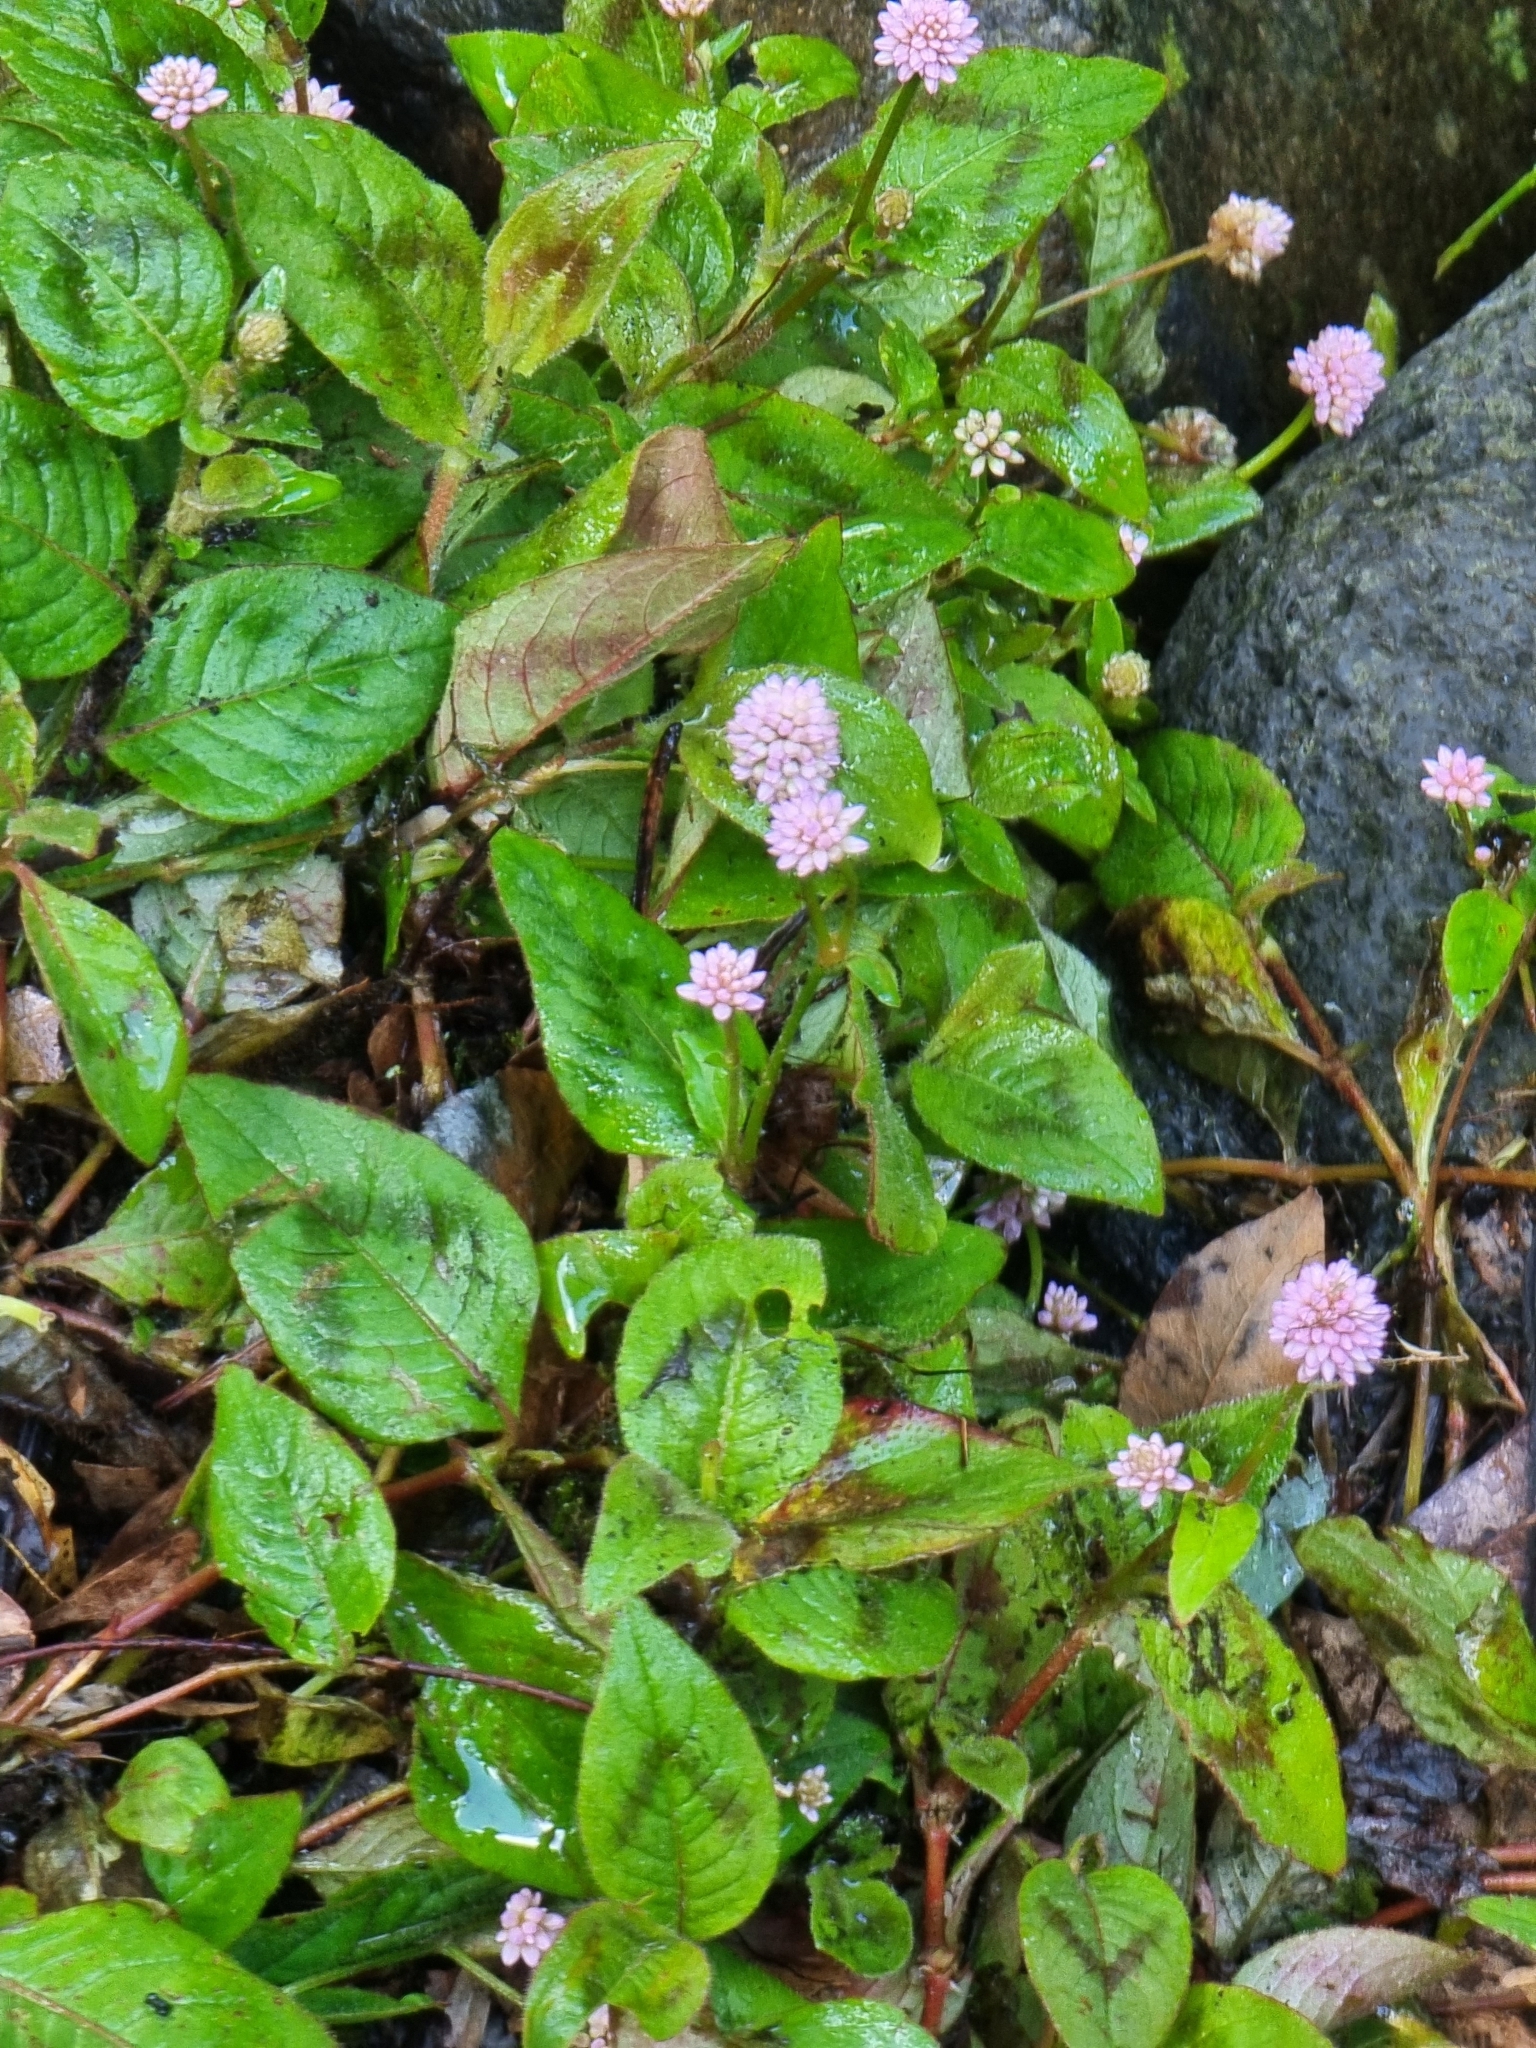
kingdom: Plantae
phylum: Tracheophyta
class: Magnoliopsida
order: Caryophyllales
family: Polygonaceae
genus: Persicaria
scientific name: Persicaria capitata
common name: Pinkhead smartweed
